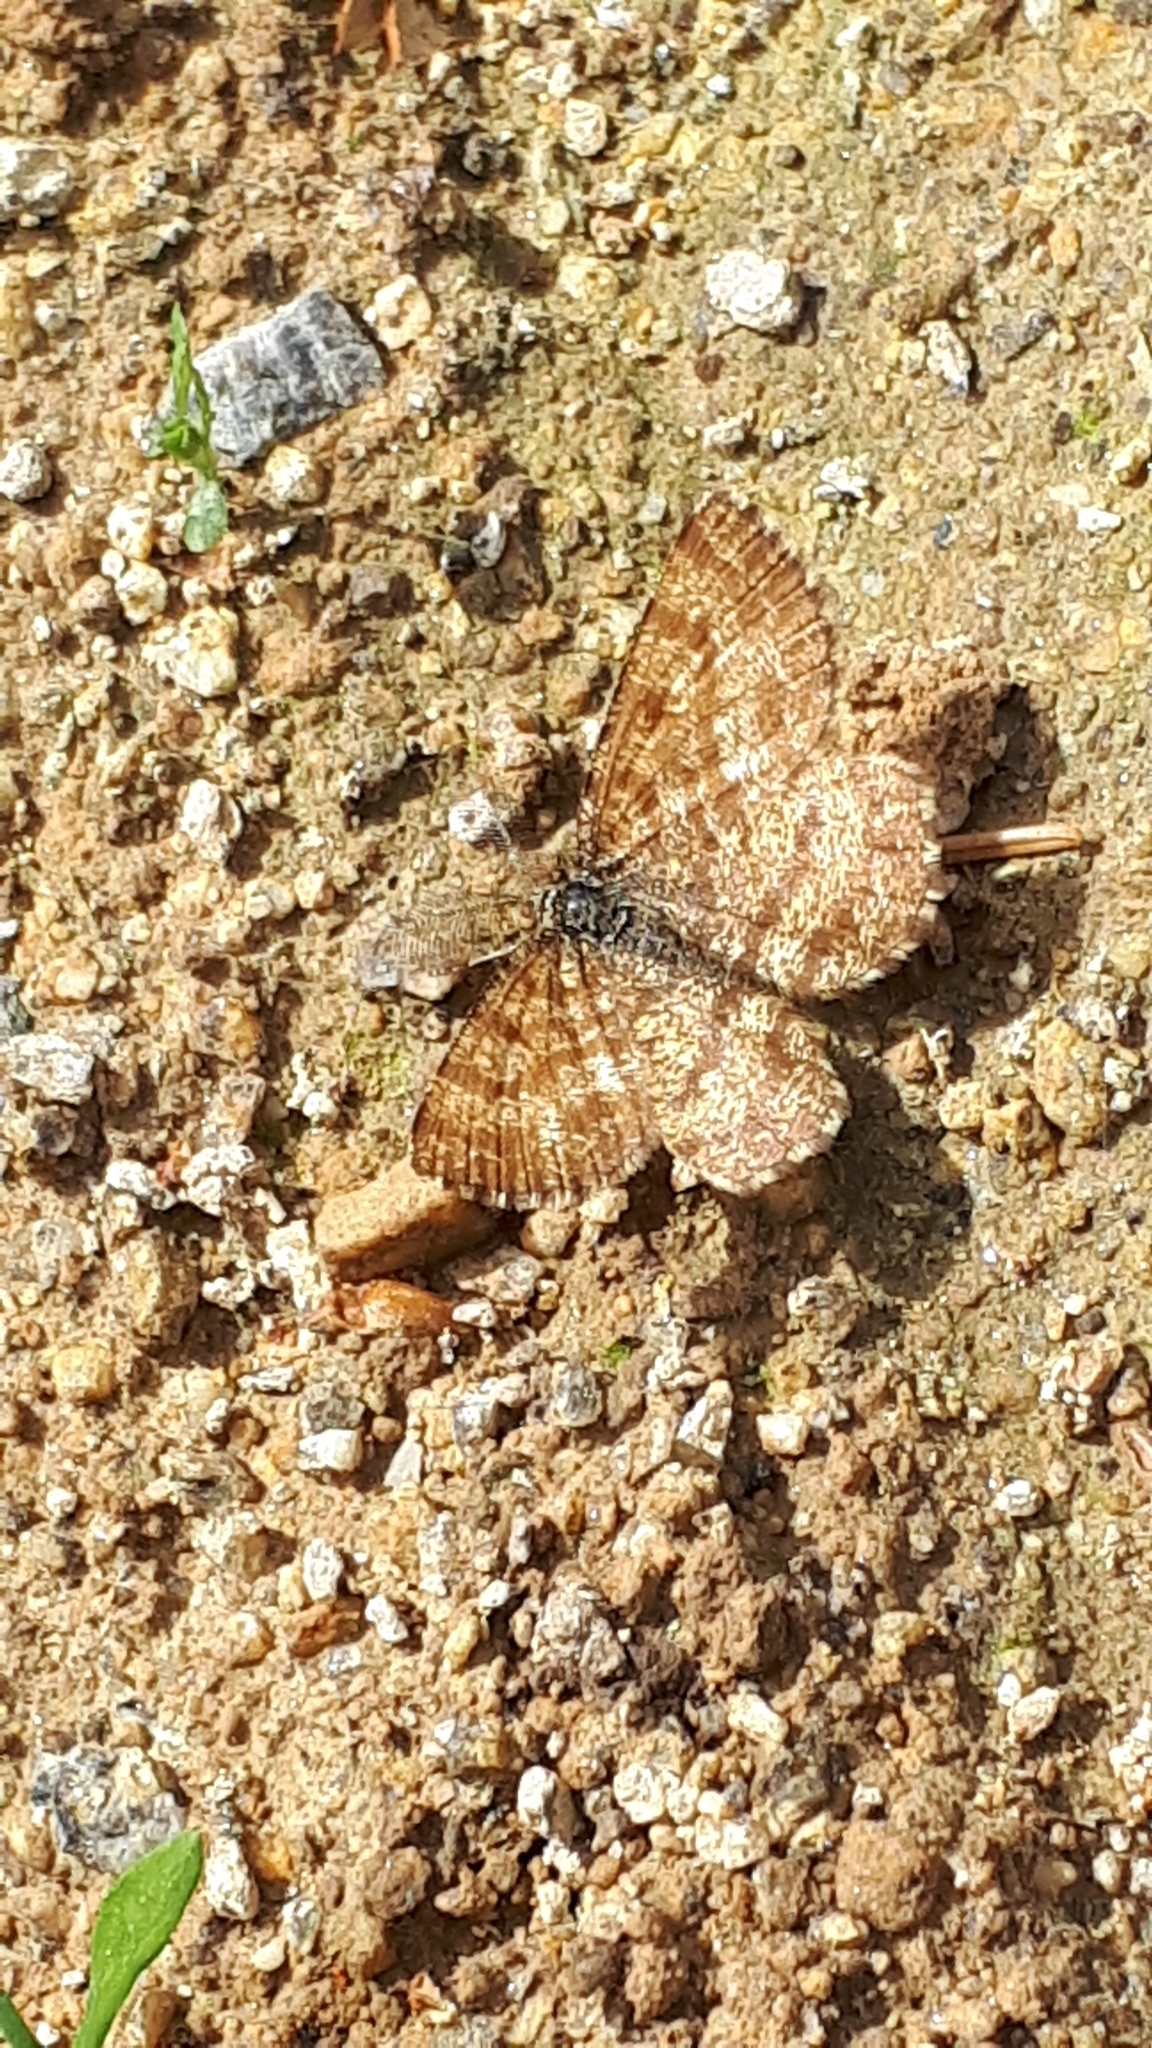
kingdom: Animalia
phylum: Arthropoda
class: Insecta
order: Lepidoptera
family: Geometridae
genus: Ematurga
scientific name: Ematurga atomaria
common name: Common heath
